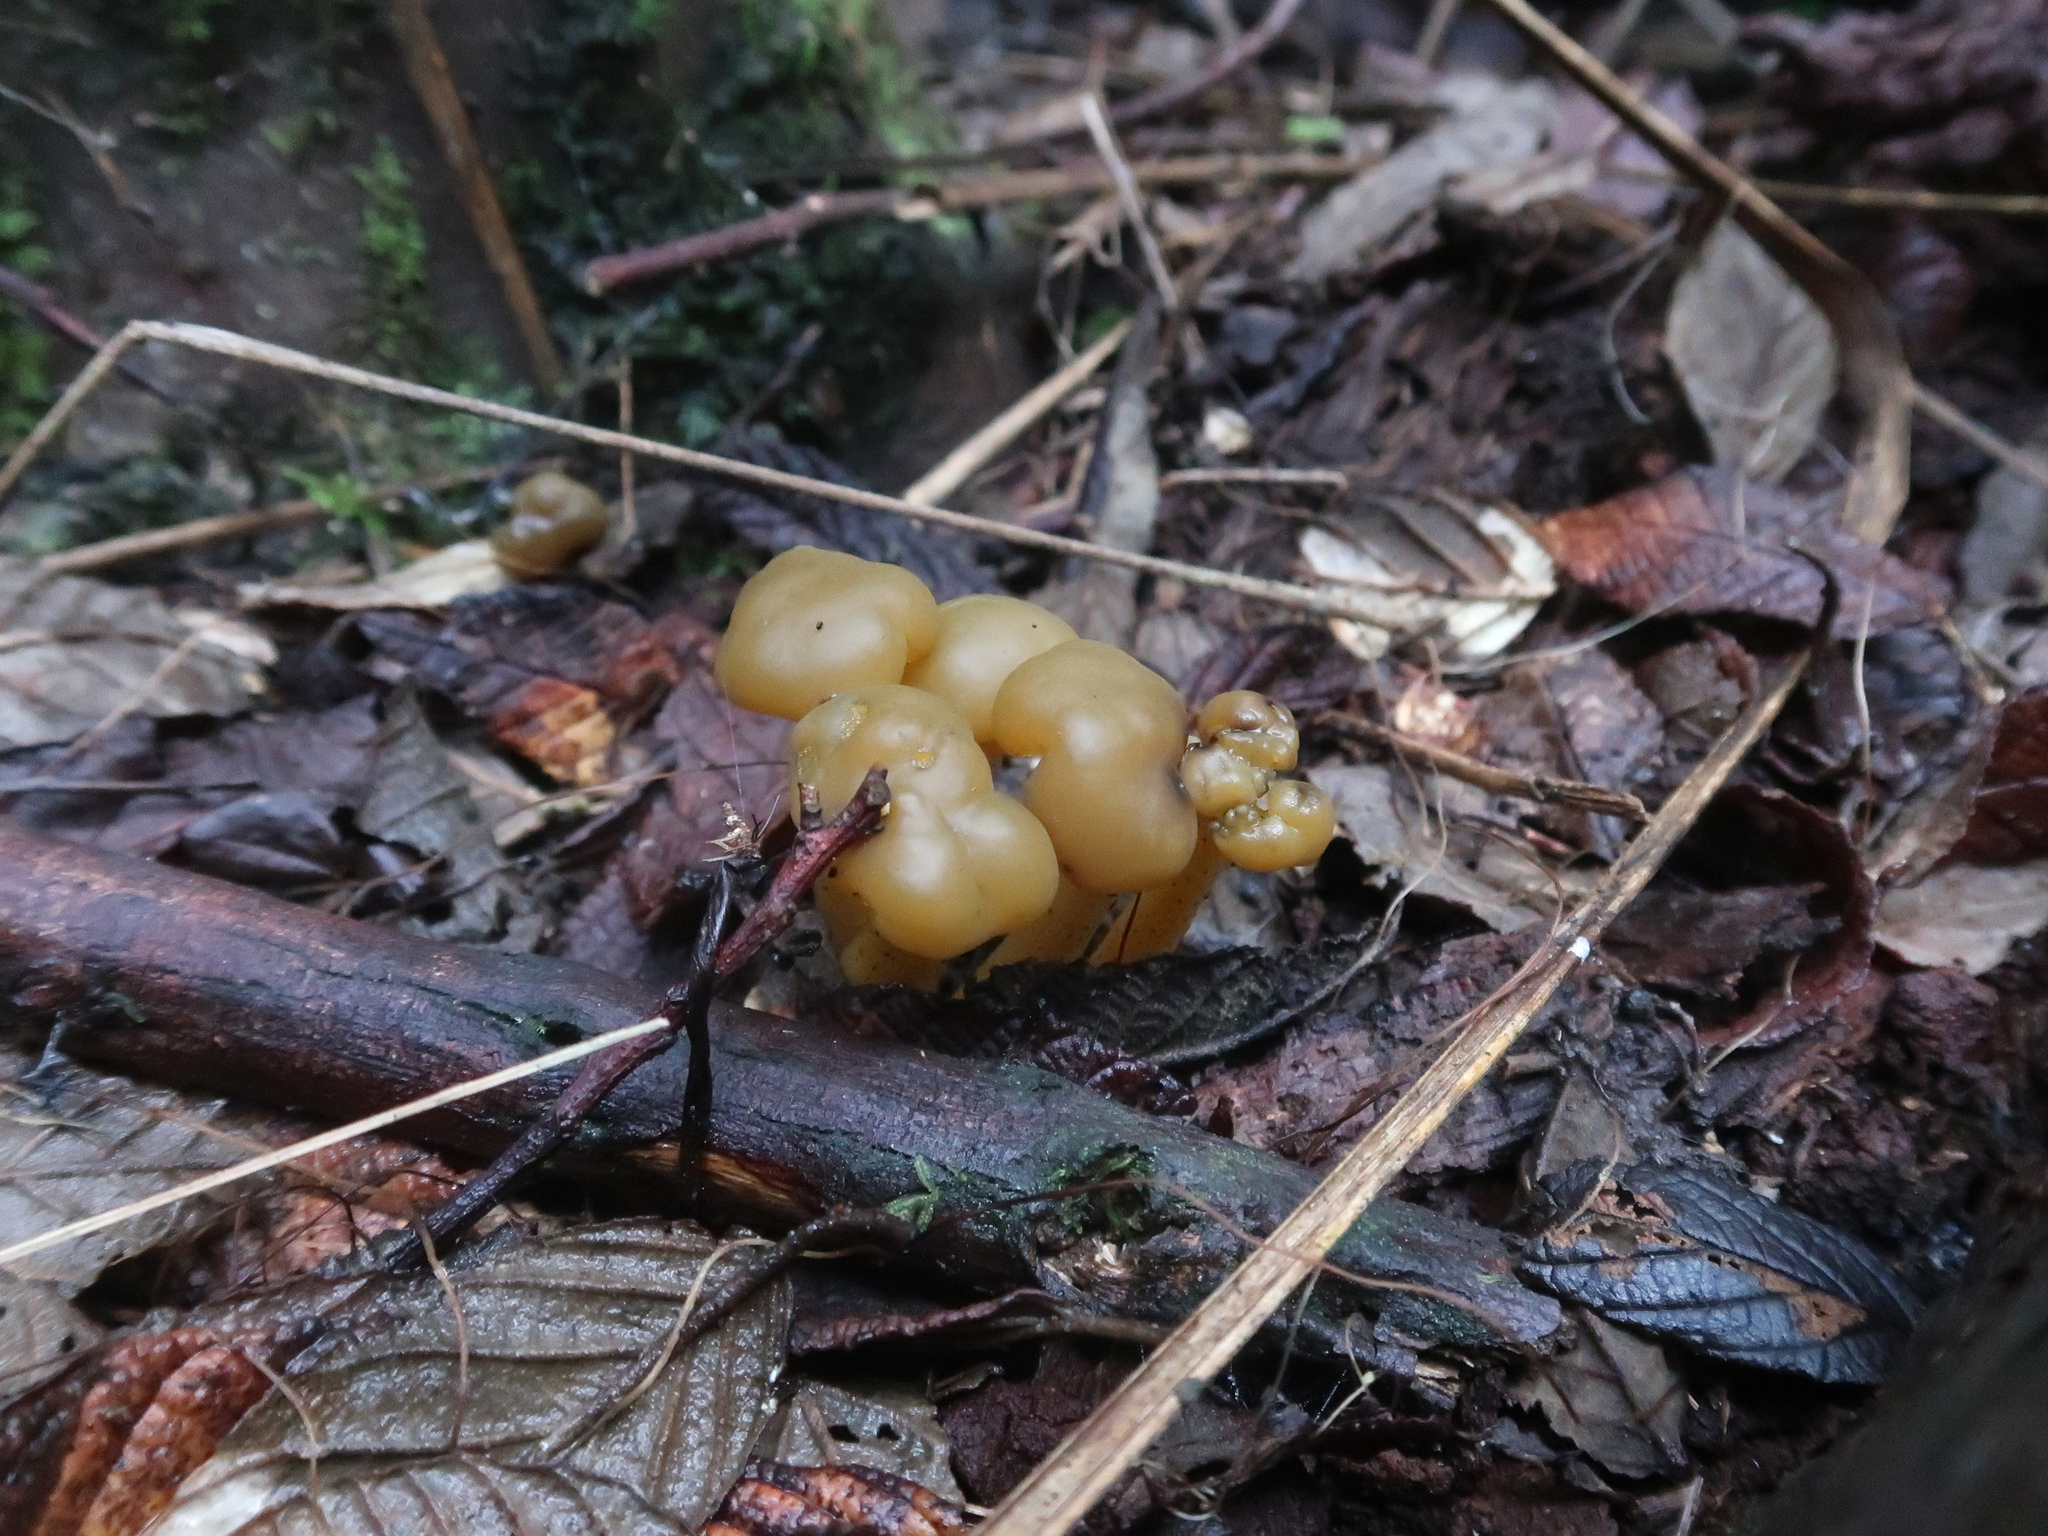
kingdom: Fungi
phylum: Ascomycota
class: Leotiomycetes
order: Leotiales
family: Leotiaceae
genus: Leotia
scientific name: Leotia lubrica
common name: Jellybaby
